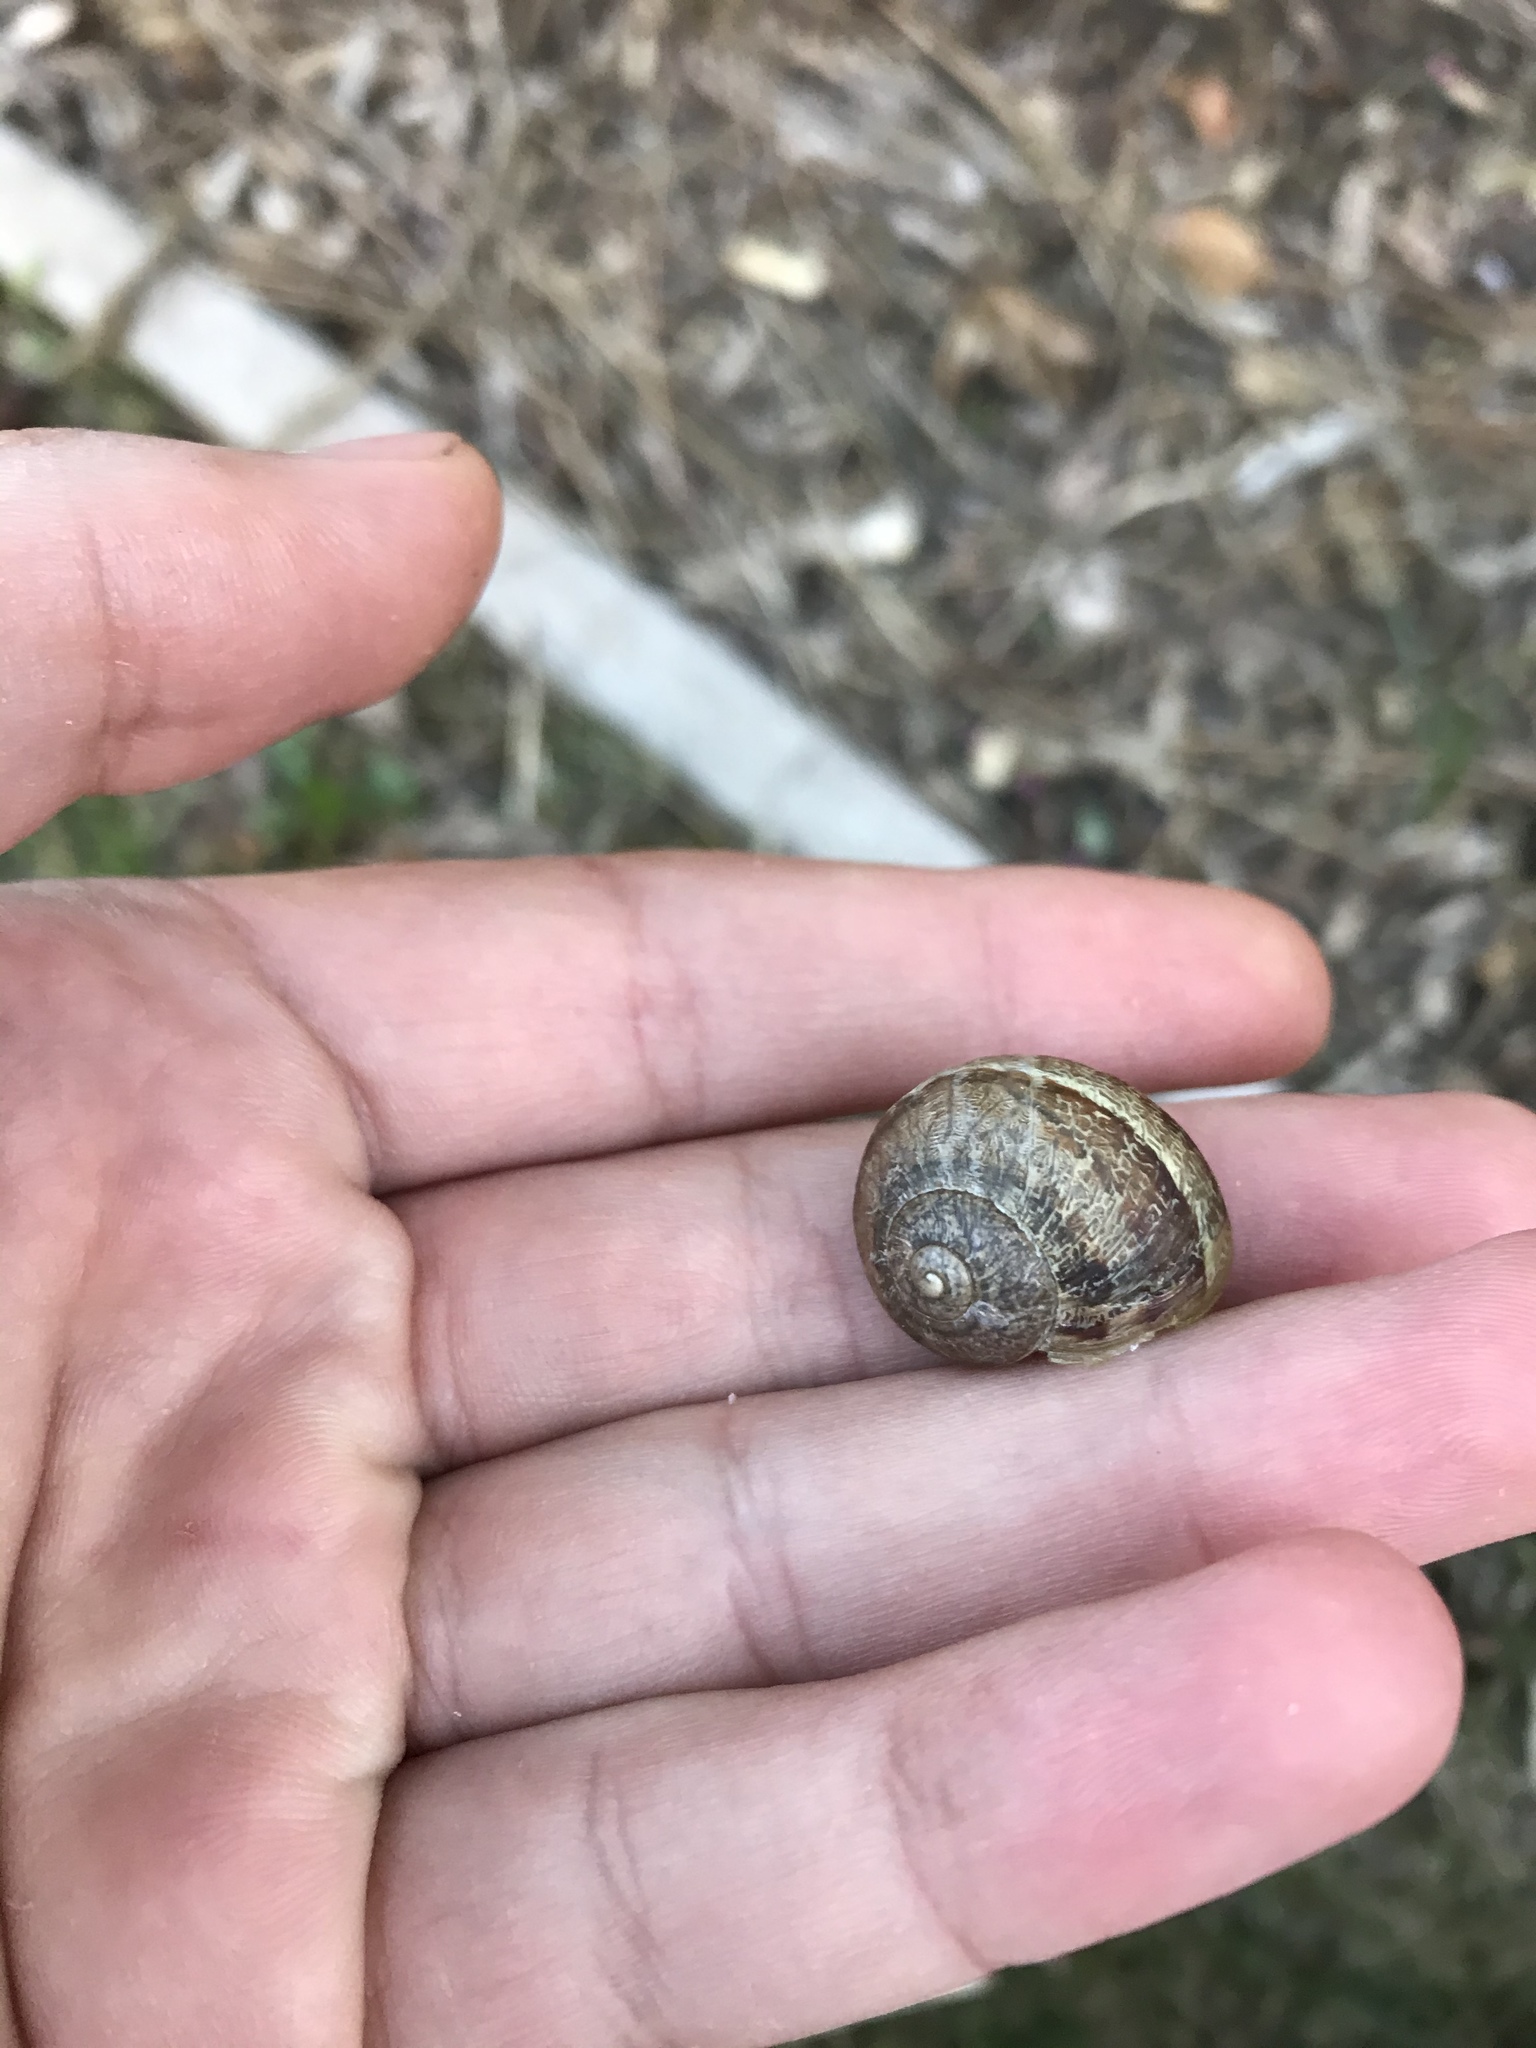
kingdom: Animalia
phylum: Mollusca
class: Gastropoda
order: Stylommatophora
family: Helicidae
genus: Cornu
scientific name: Cornu aspersum
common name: Brown garden snail
